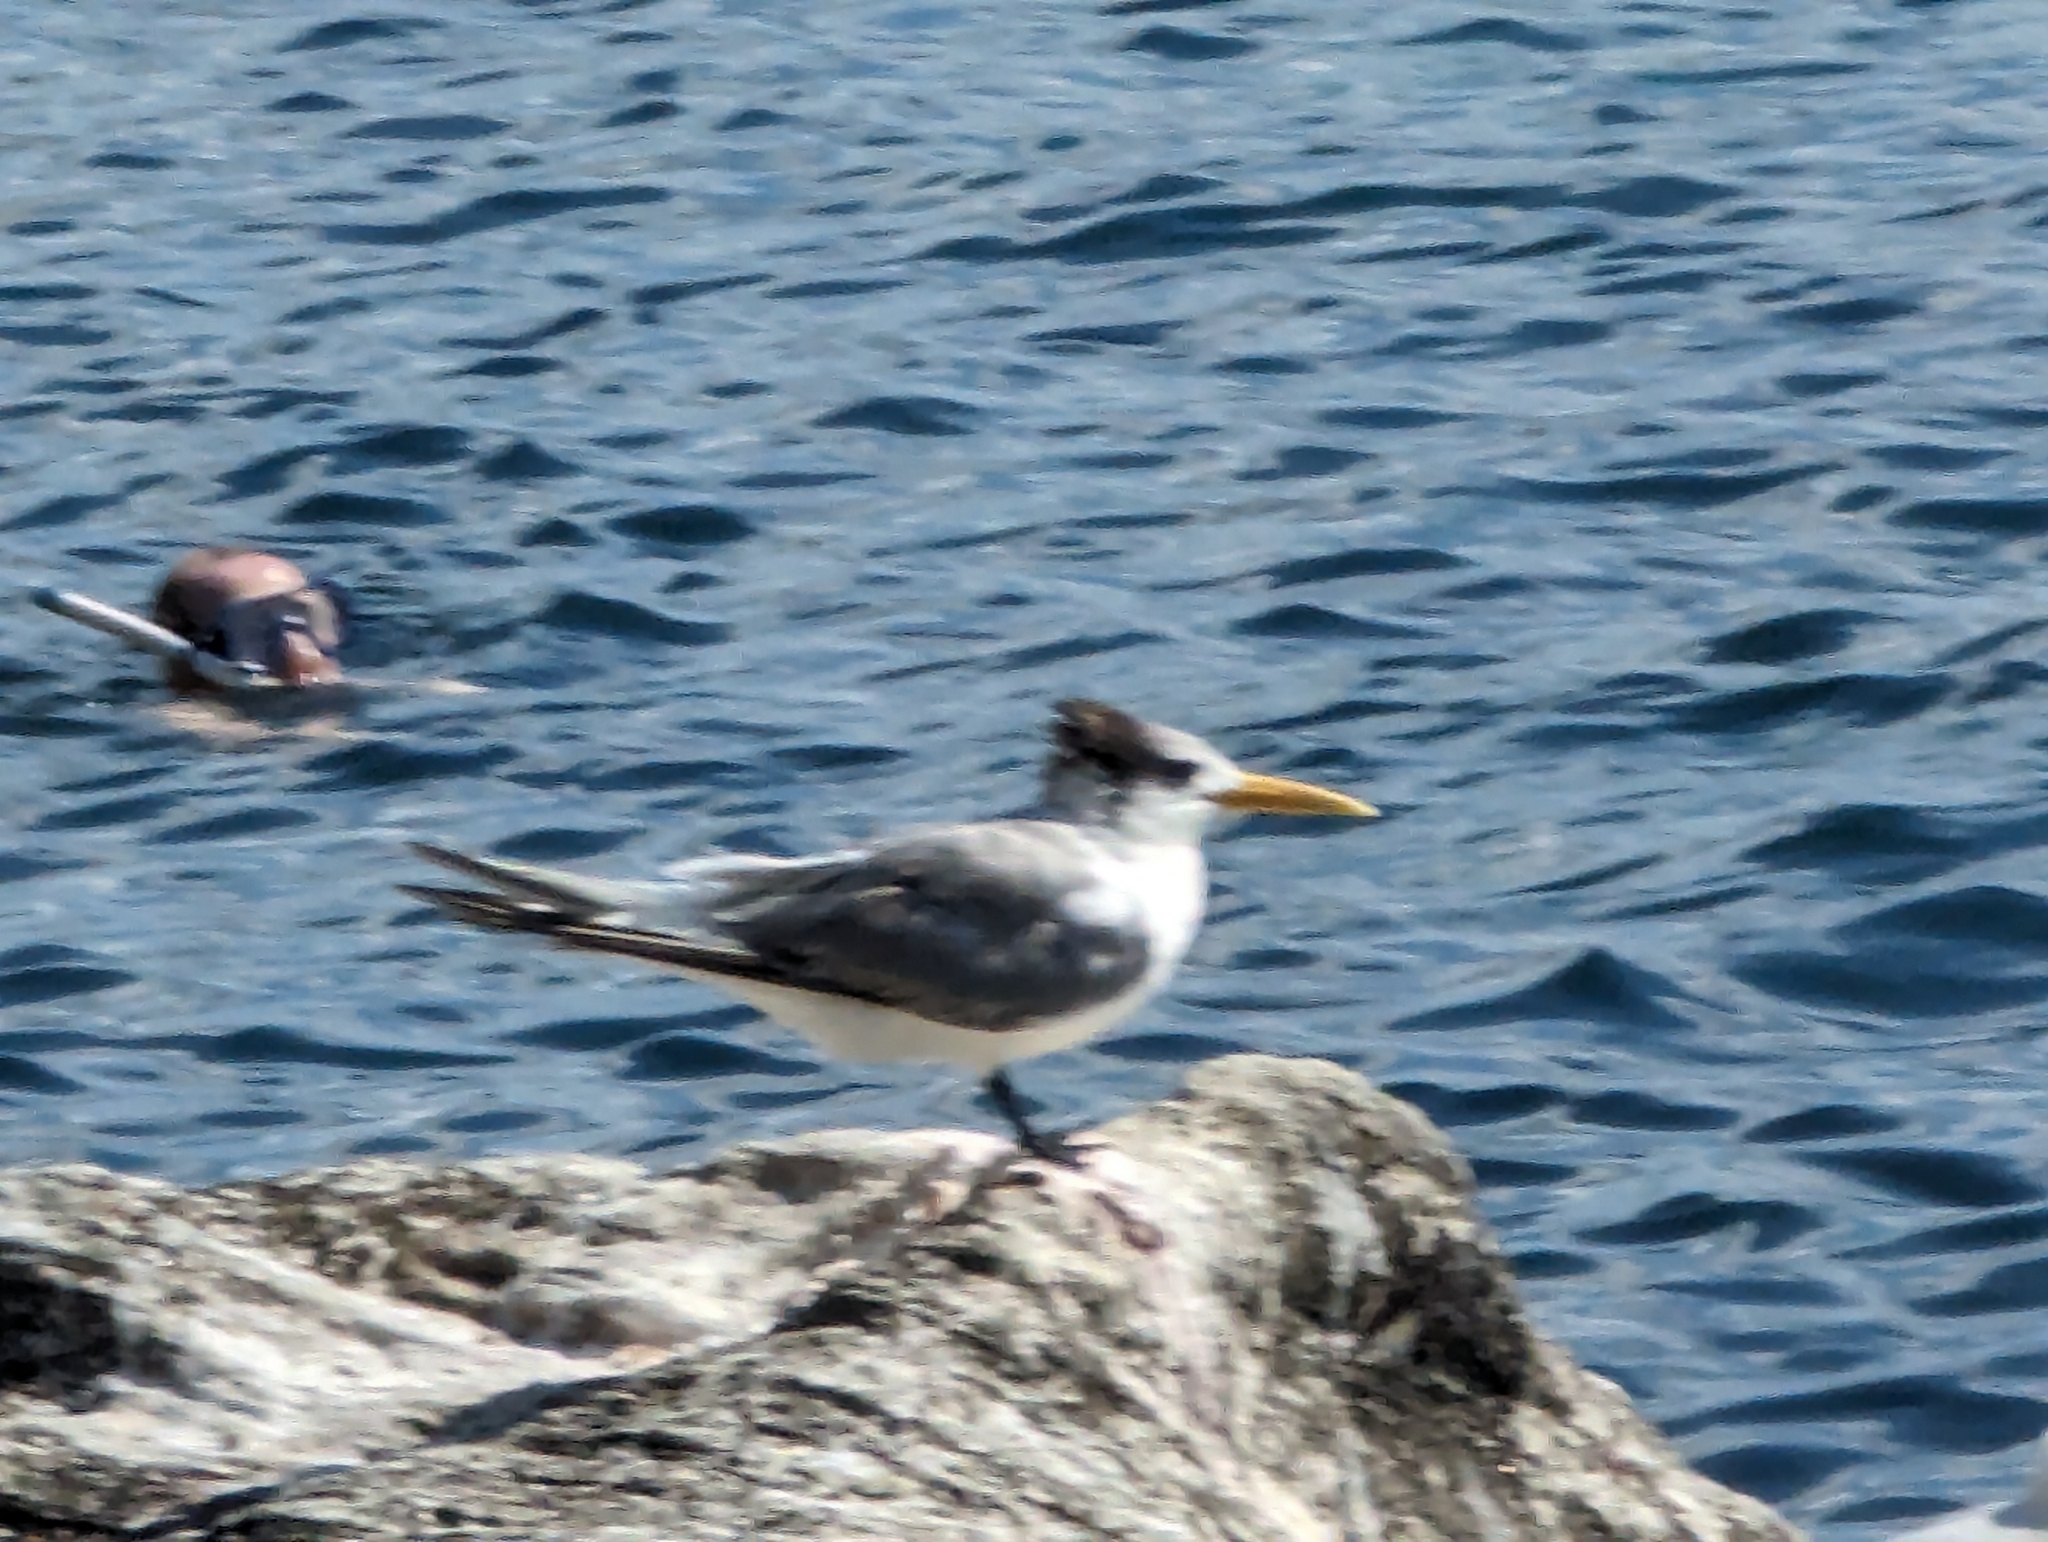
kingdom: Animalia
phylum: Chordata
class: Aves
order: Charadriiformes
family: Laridae
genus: Thalasseus
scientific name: Thalasseus bergii
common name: Greater crested tern
